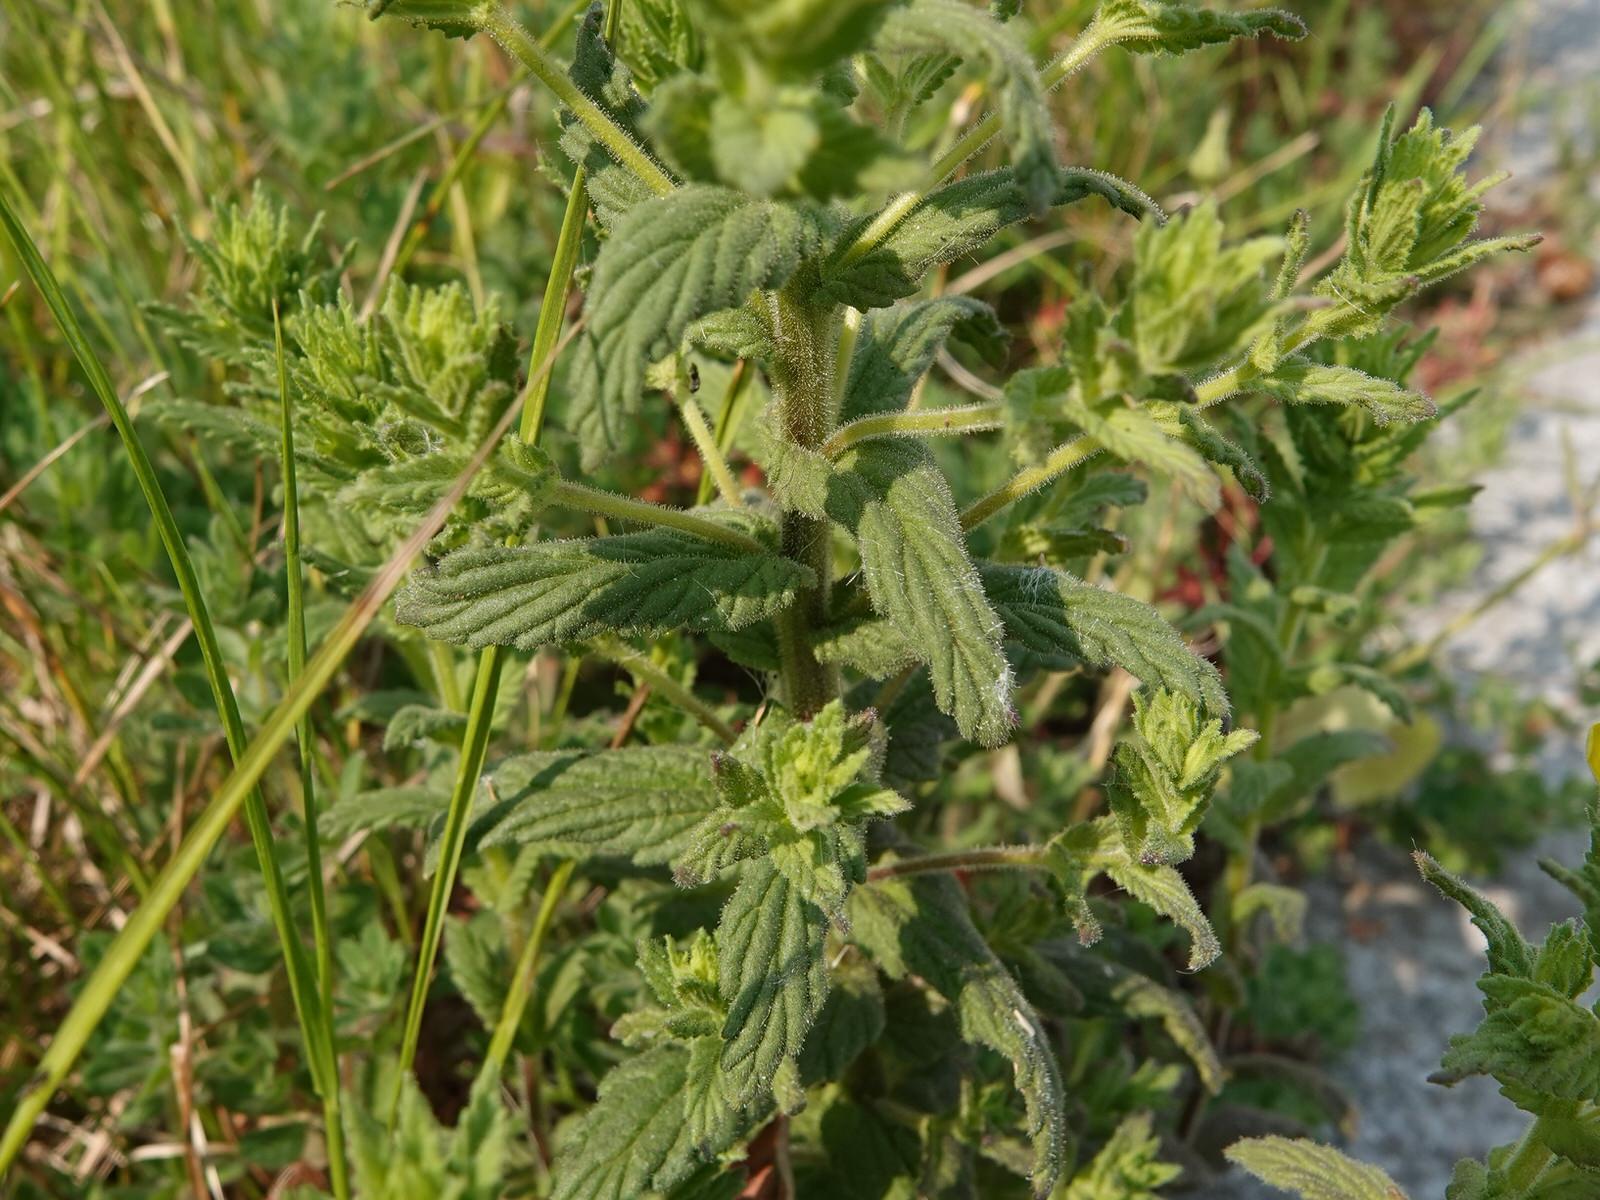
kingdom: Plantae
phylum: Tracheophyta
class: Magnoliopsida
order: Lamiales
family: Orobanchaceae
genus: Bellardia
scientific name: Bellardia viscosa
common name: Sticky parentucellia
